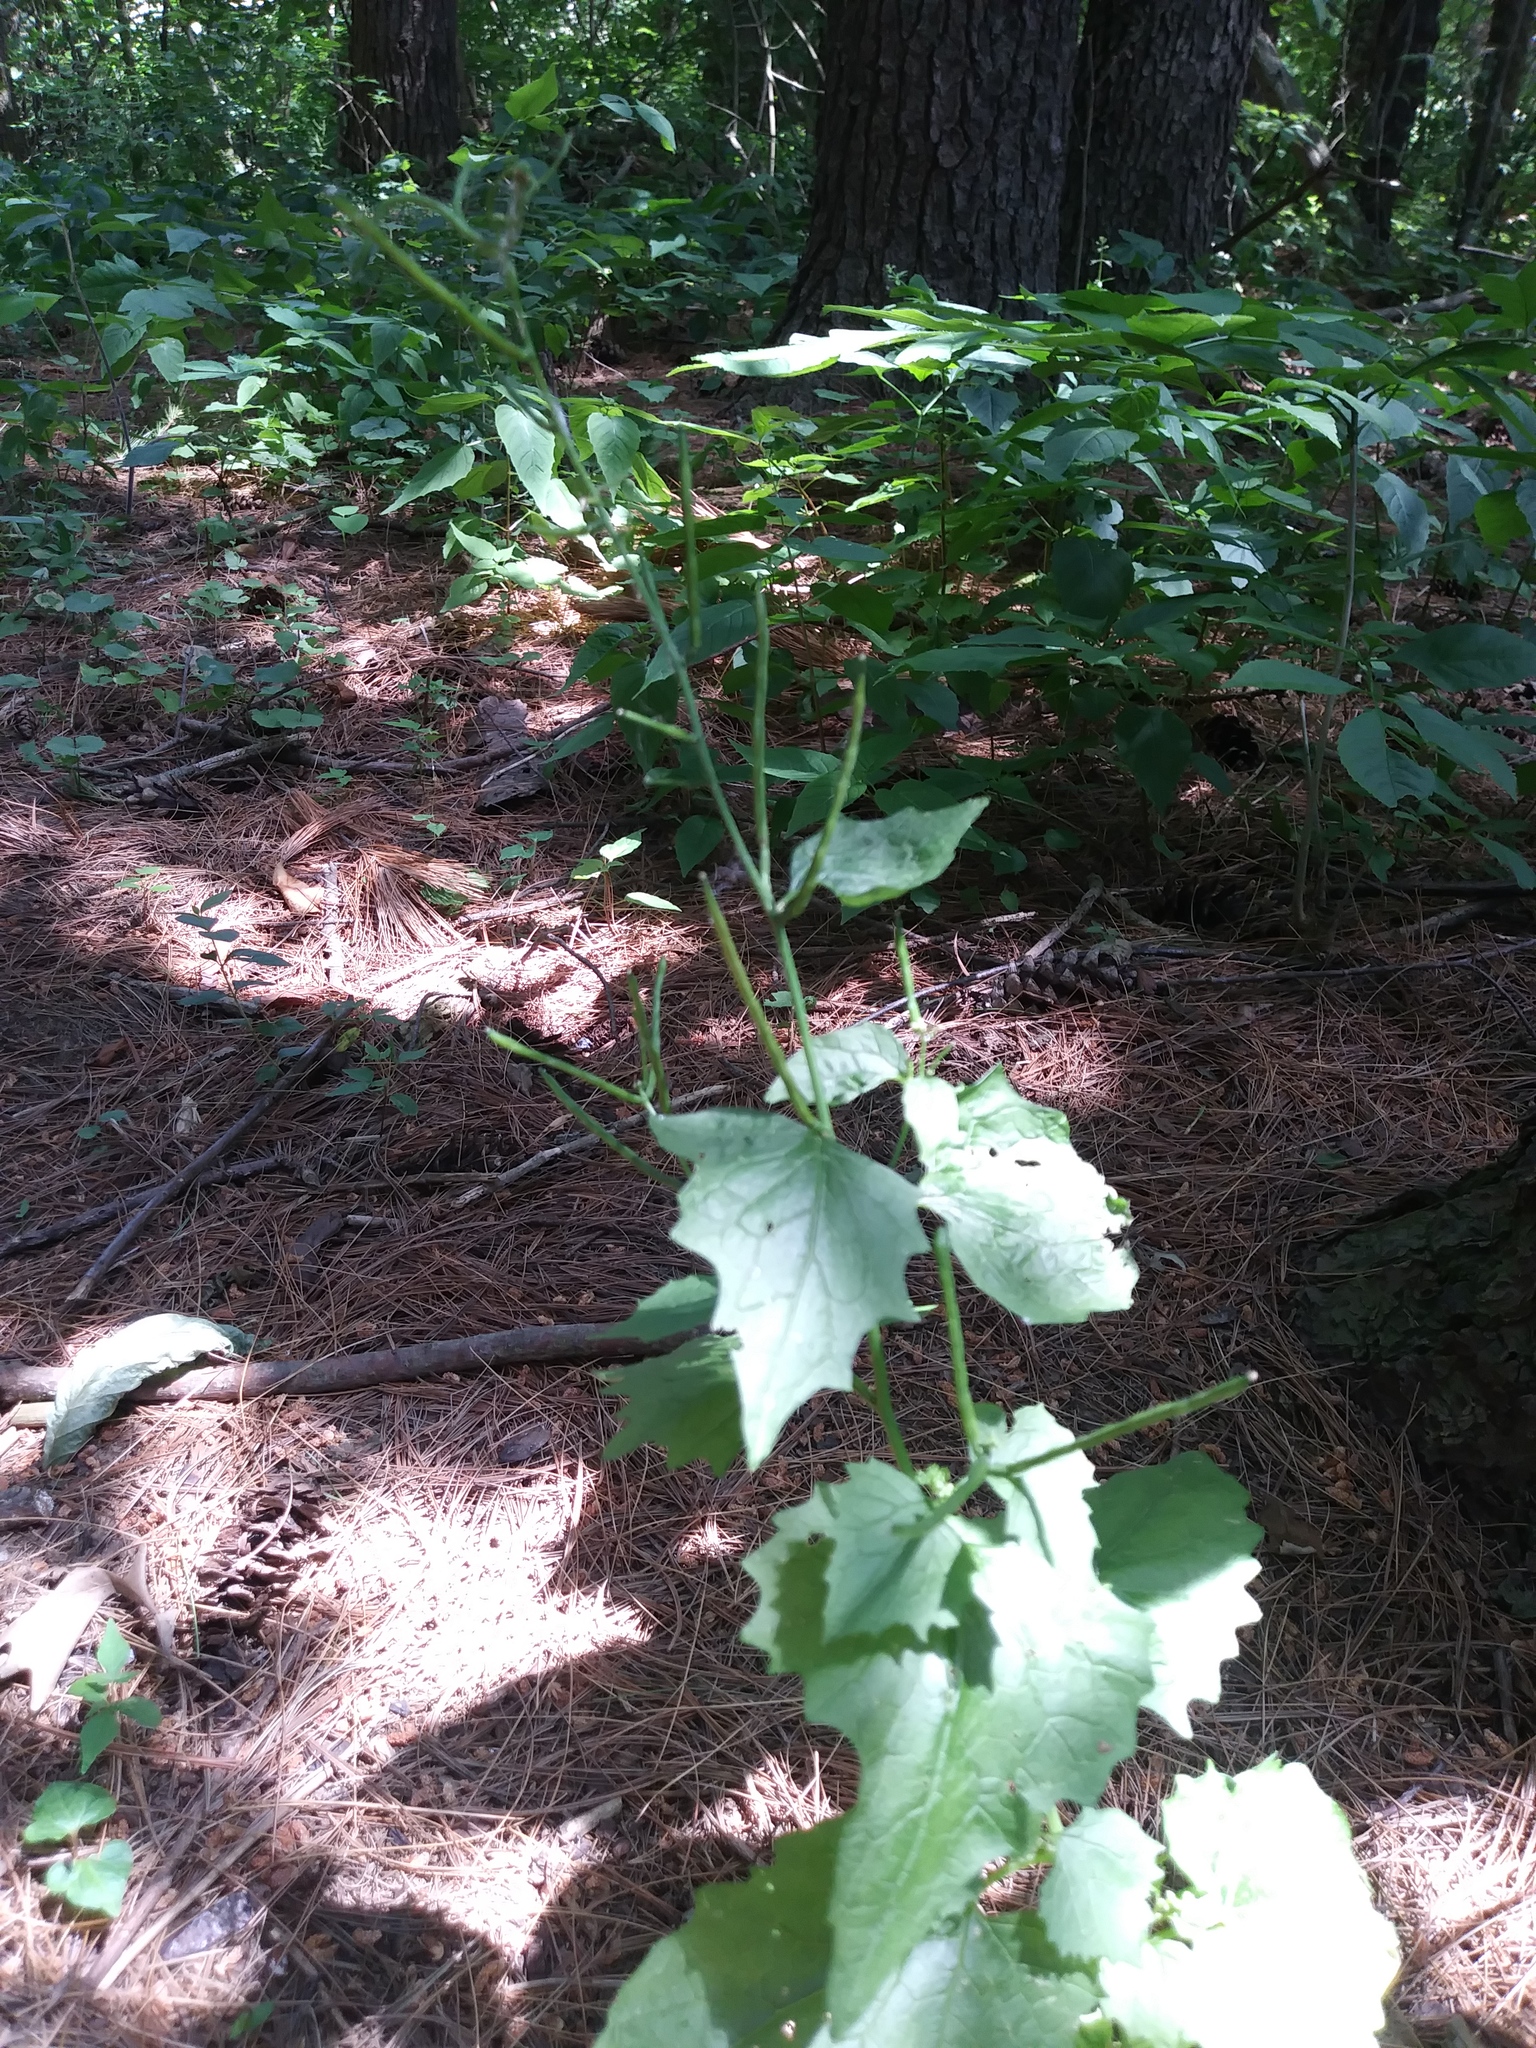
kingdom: Plantae
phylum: Tracheophyta
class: Magnoliopsida
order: Brassicales
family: Brassicaceae
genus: Alliaria
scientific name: Alliaria petiolata
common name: Garlic mustard
